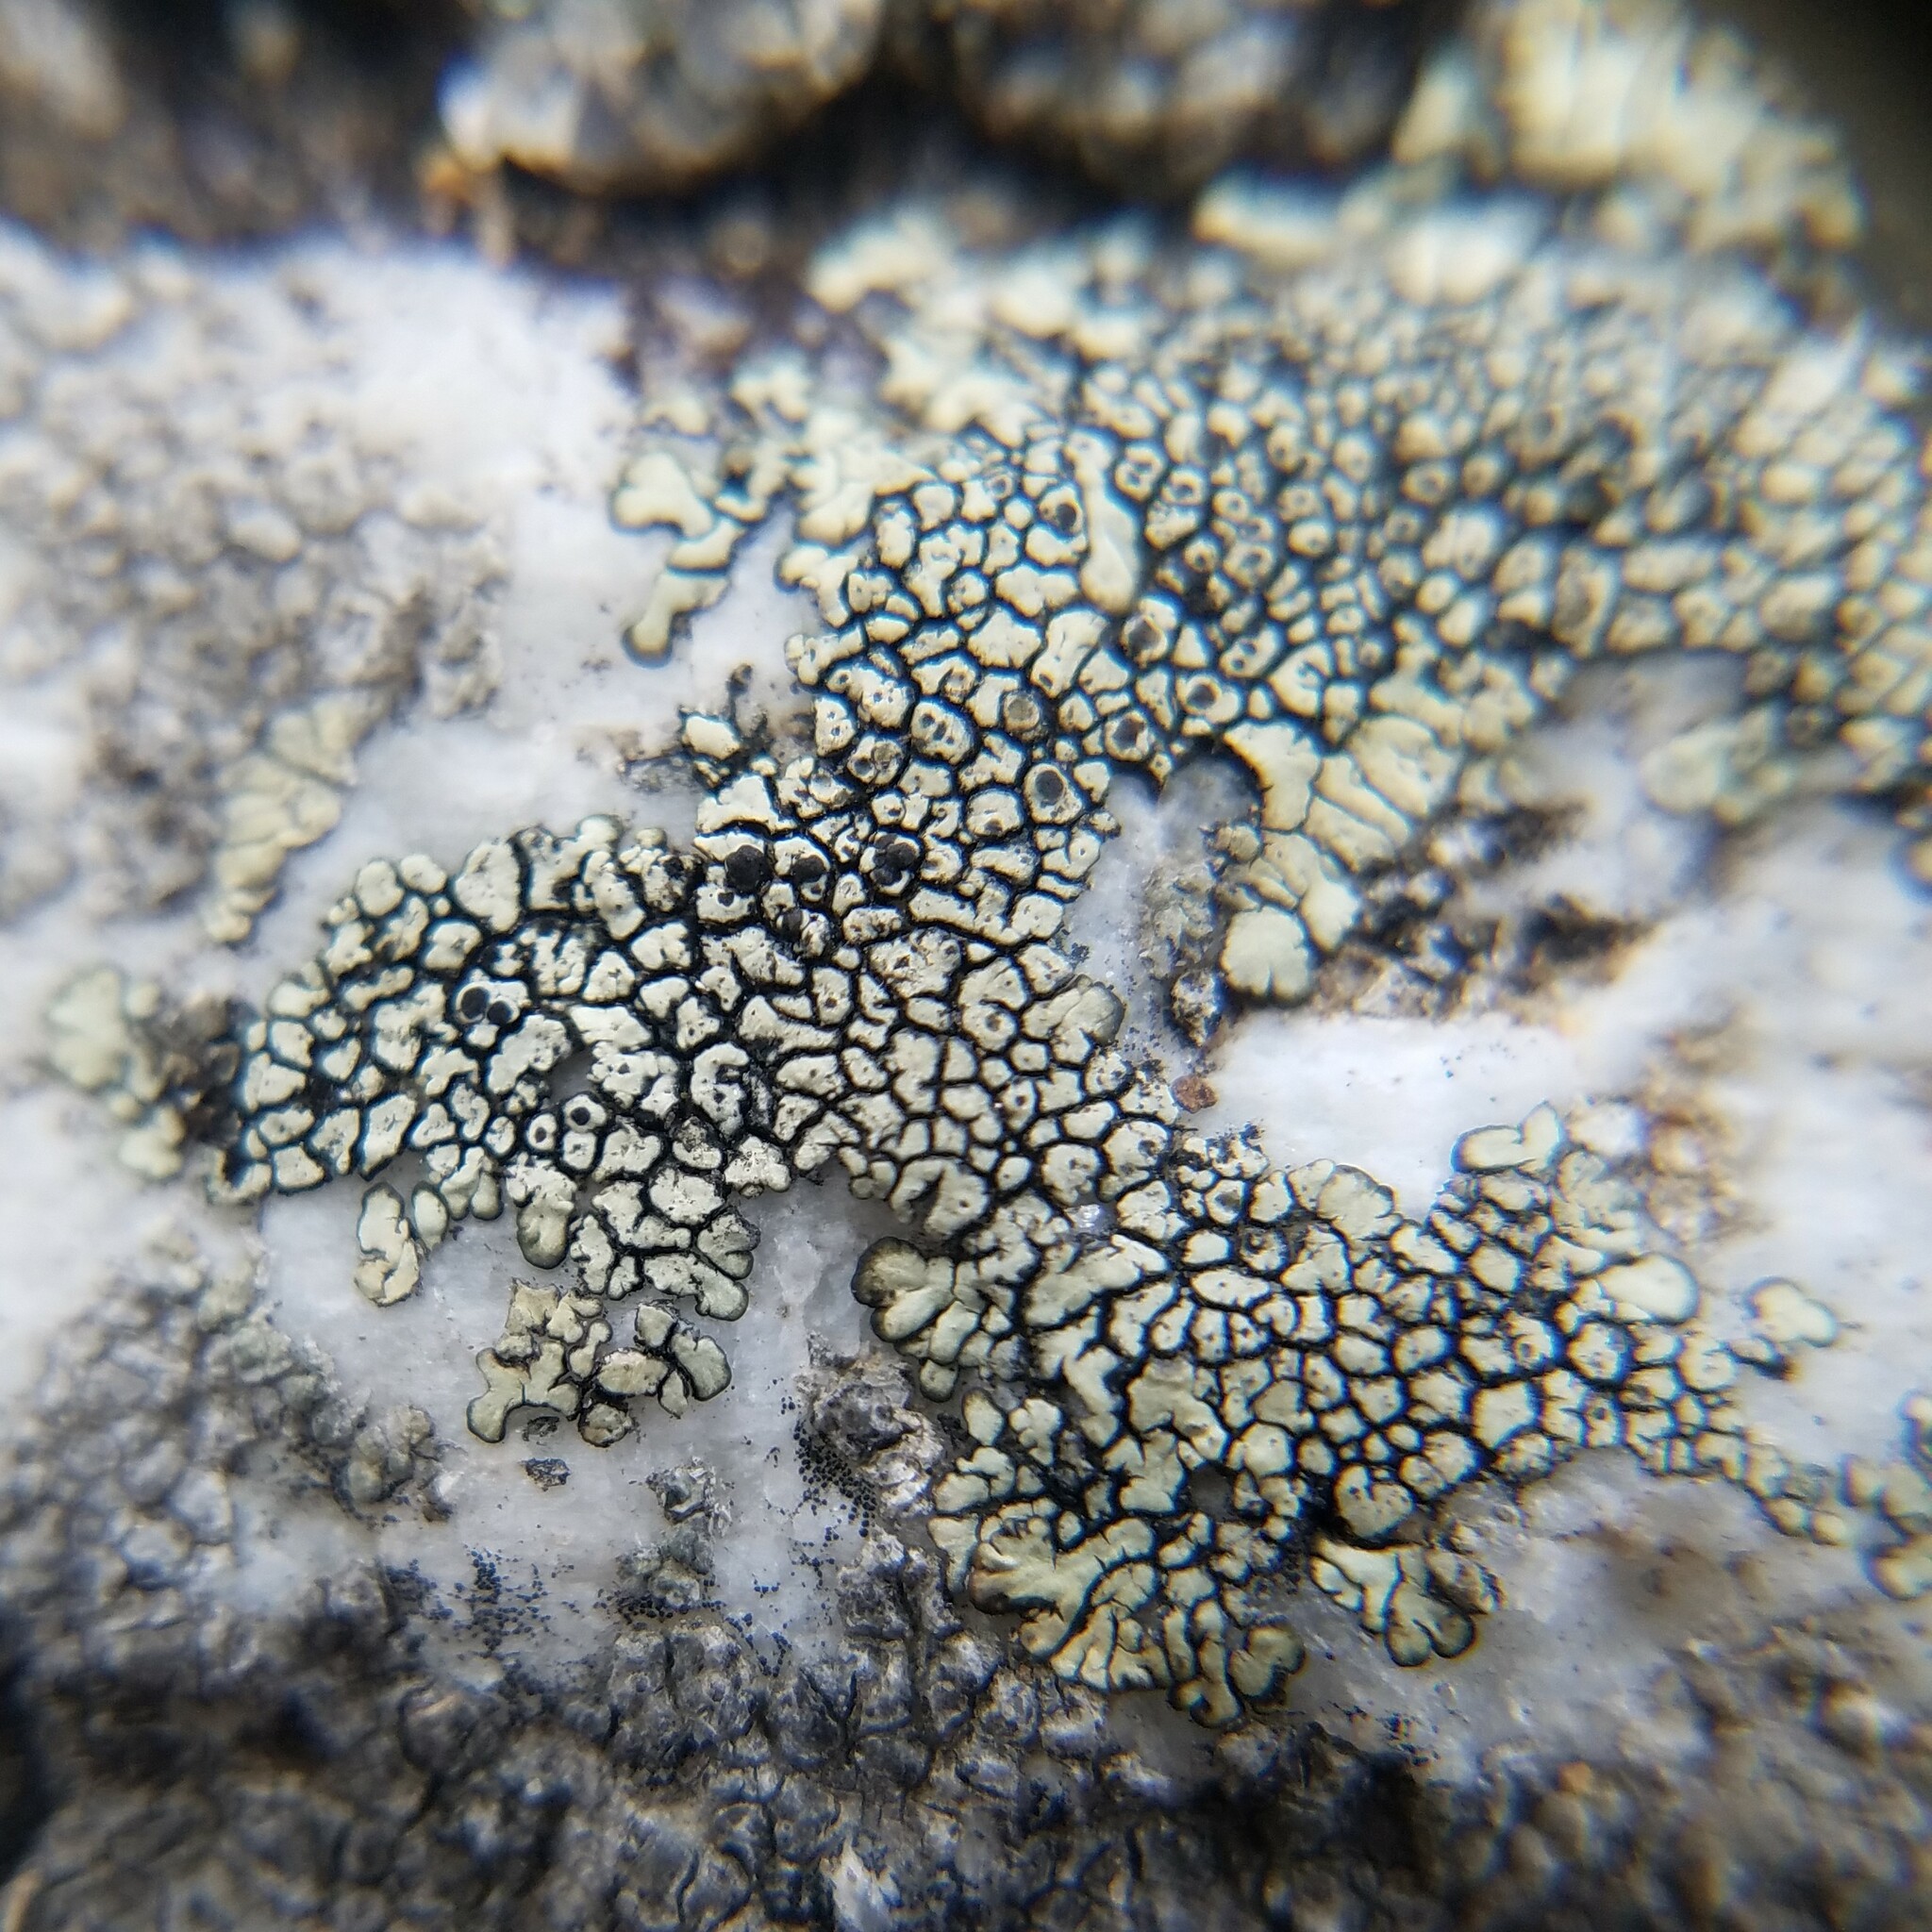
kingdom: Fungi
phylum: Ascomycota
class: Lecanoromycetes
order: Caliciales
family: Caliciaceae
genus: Dimelaena
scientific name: Dimelaena oreina
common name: Golden moonglow lichen
